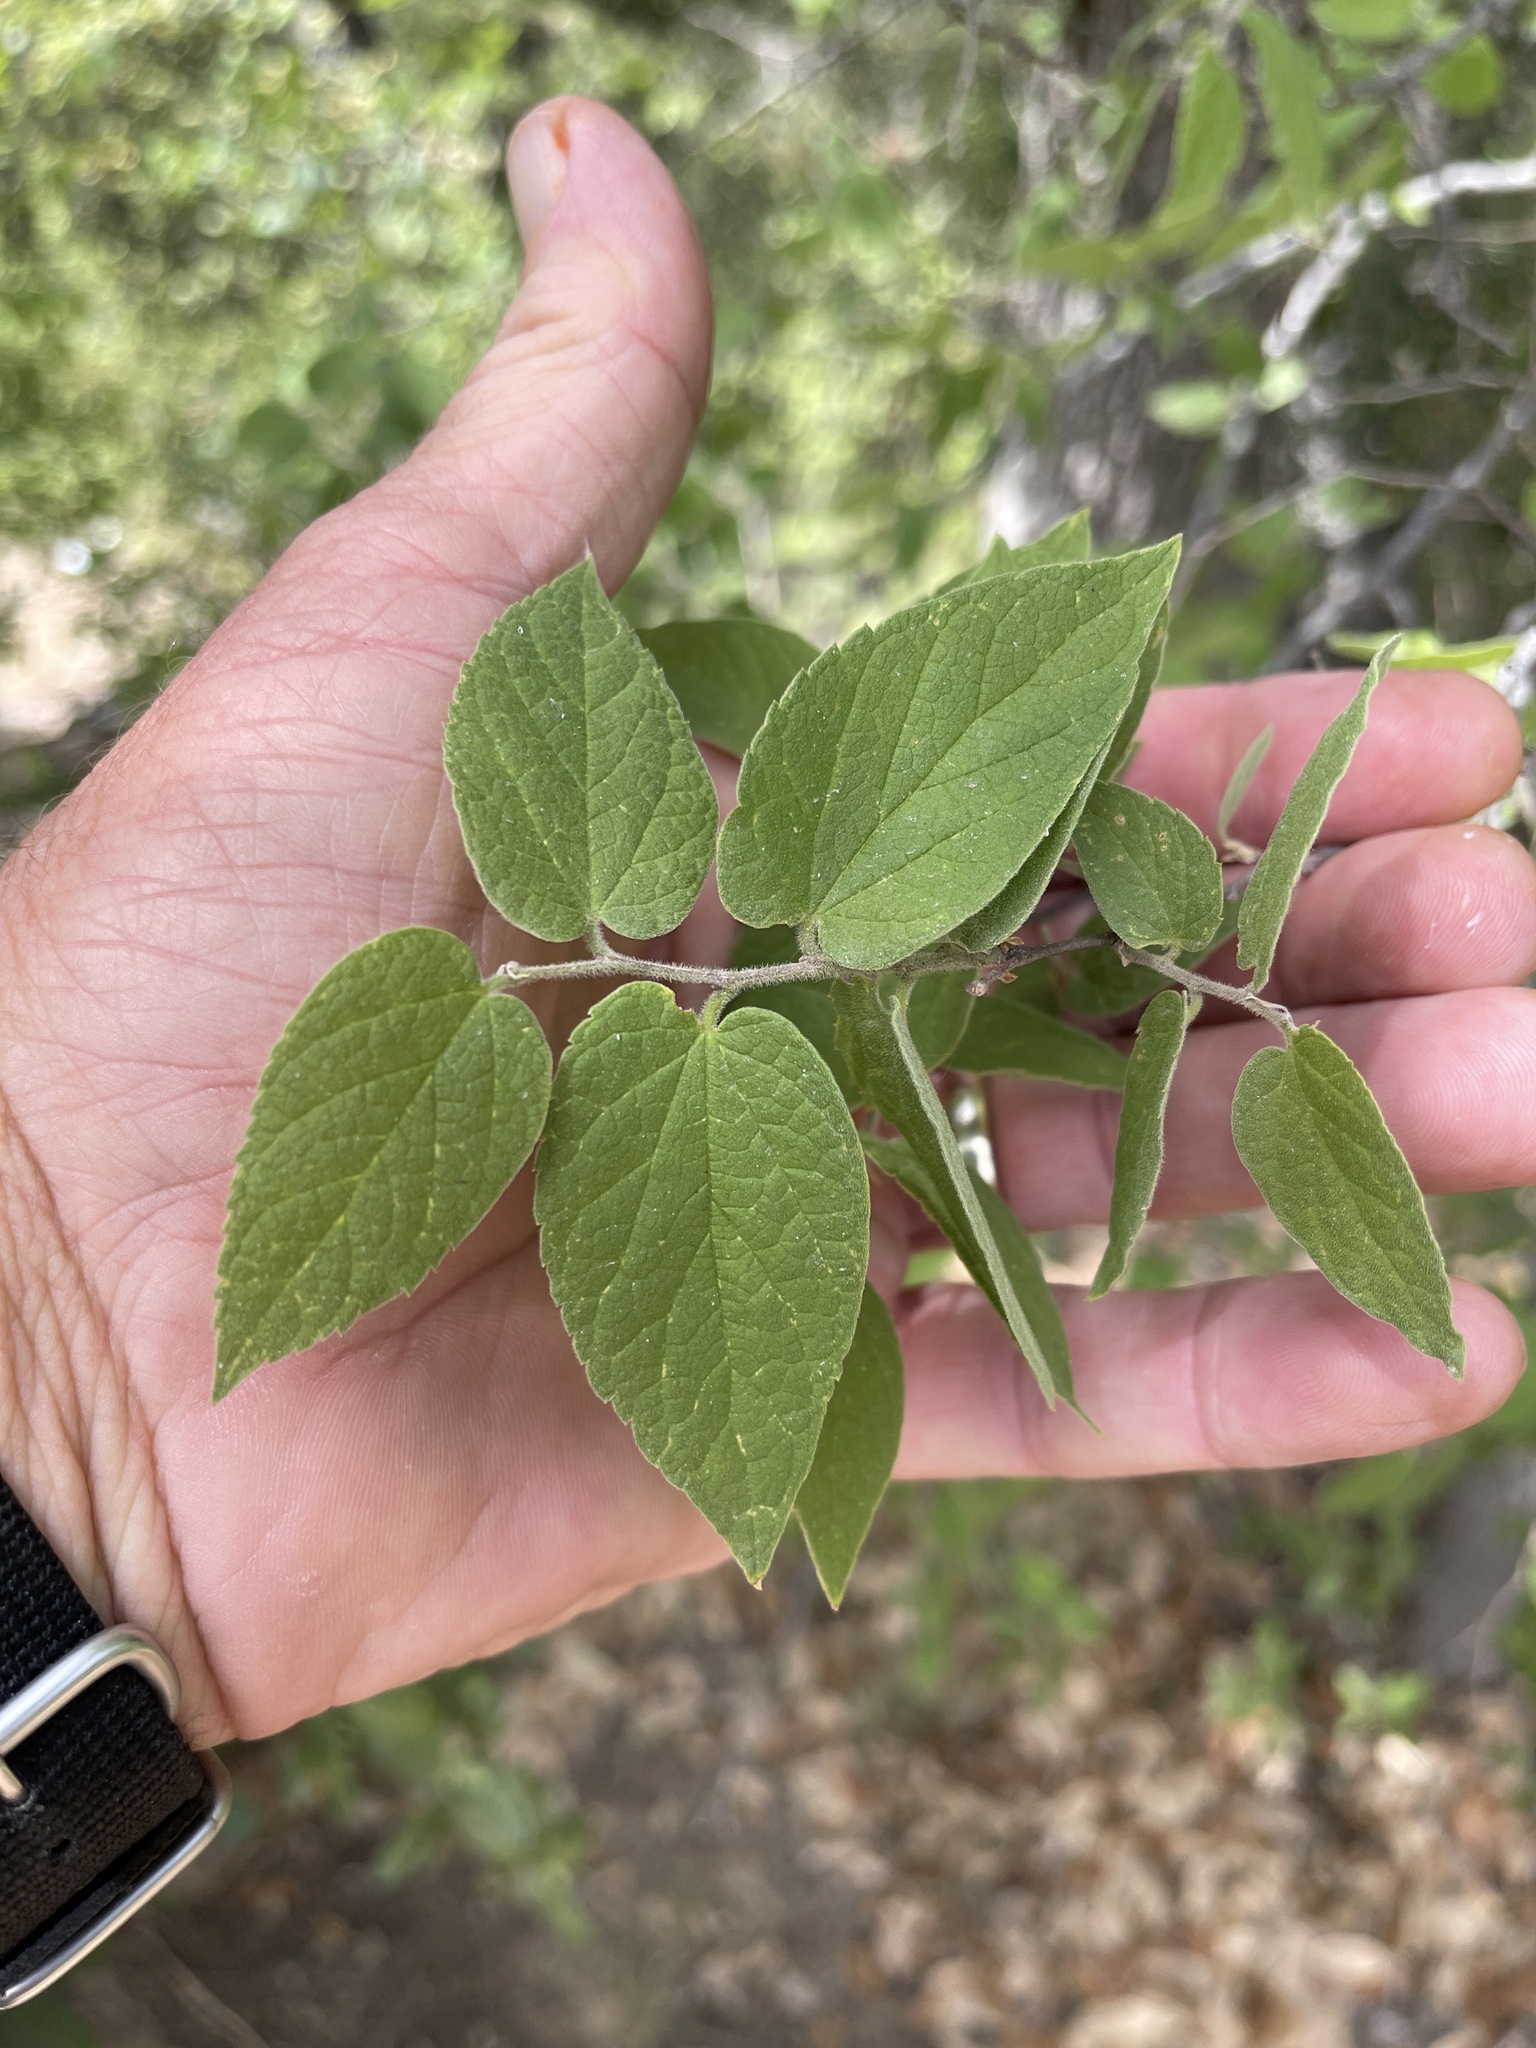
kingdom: Plantae
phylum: Tracheophyta
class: Magnoliopsida
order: Rosales
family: Cannabaceae
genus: Celtis
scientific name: Celtis reticulata
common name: Netleaf hackberry
